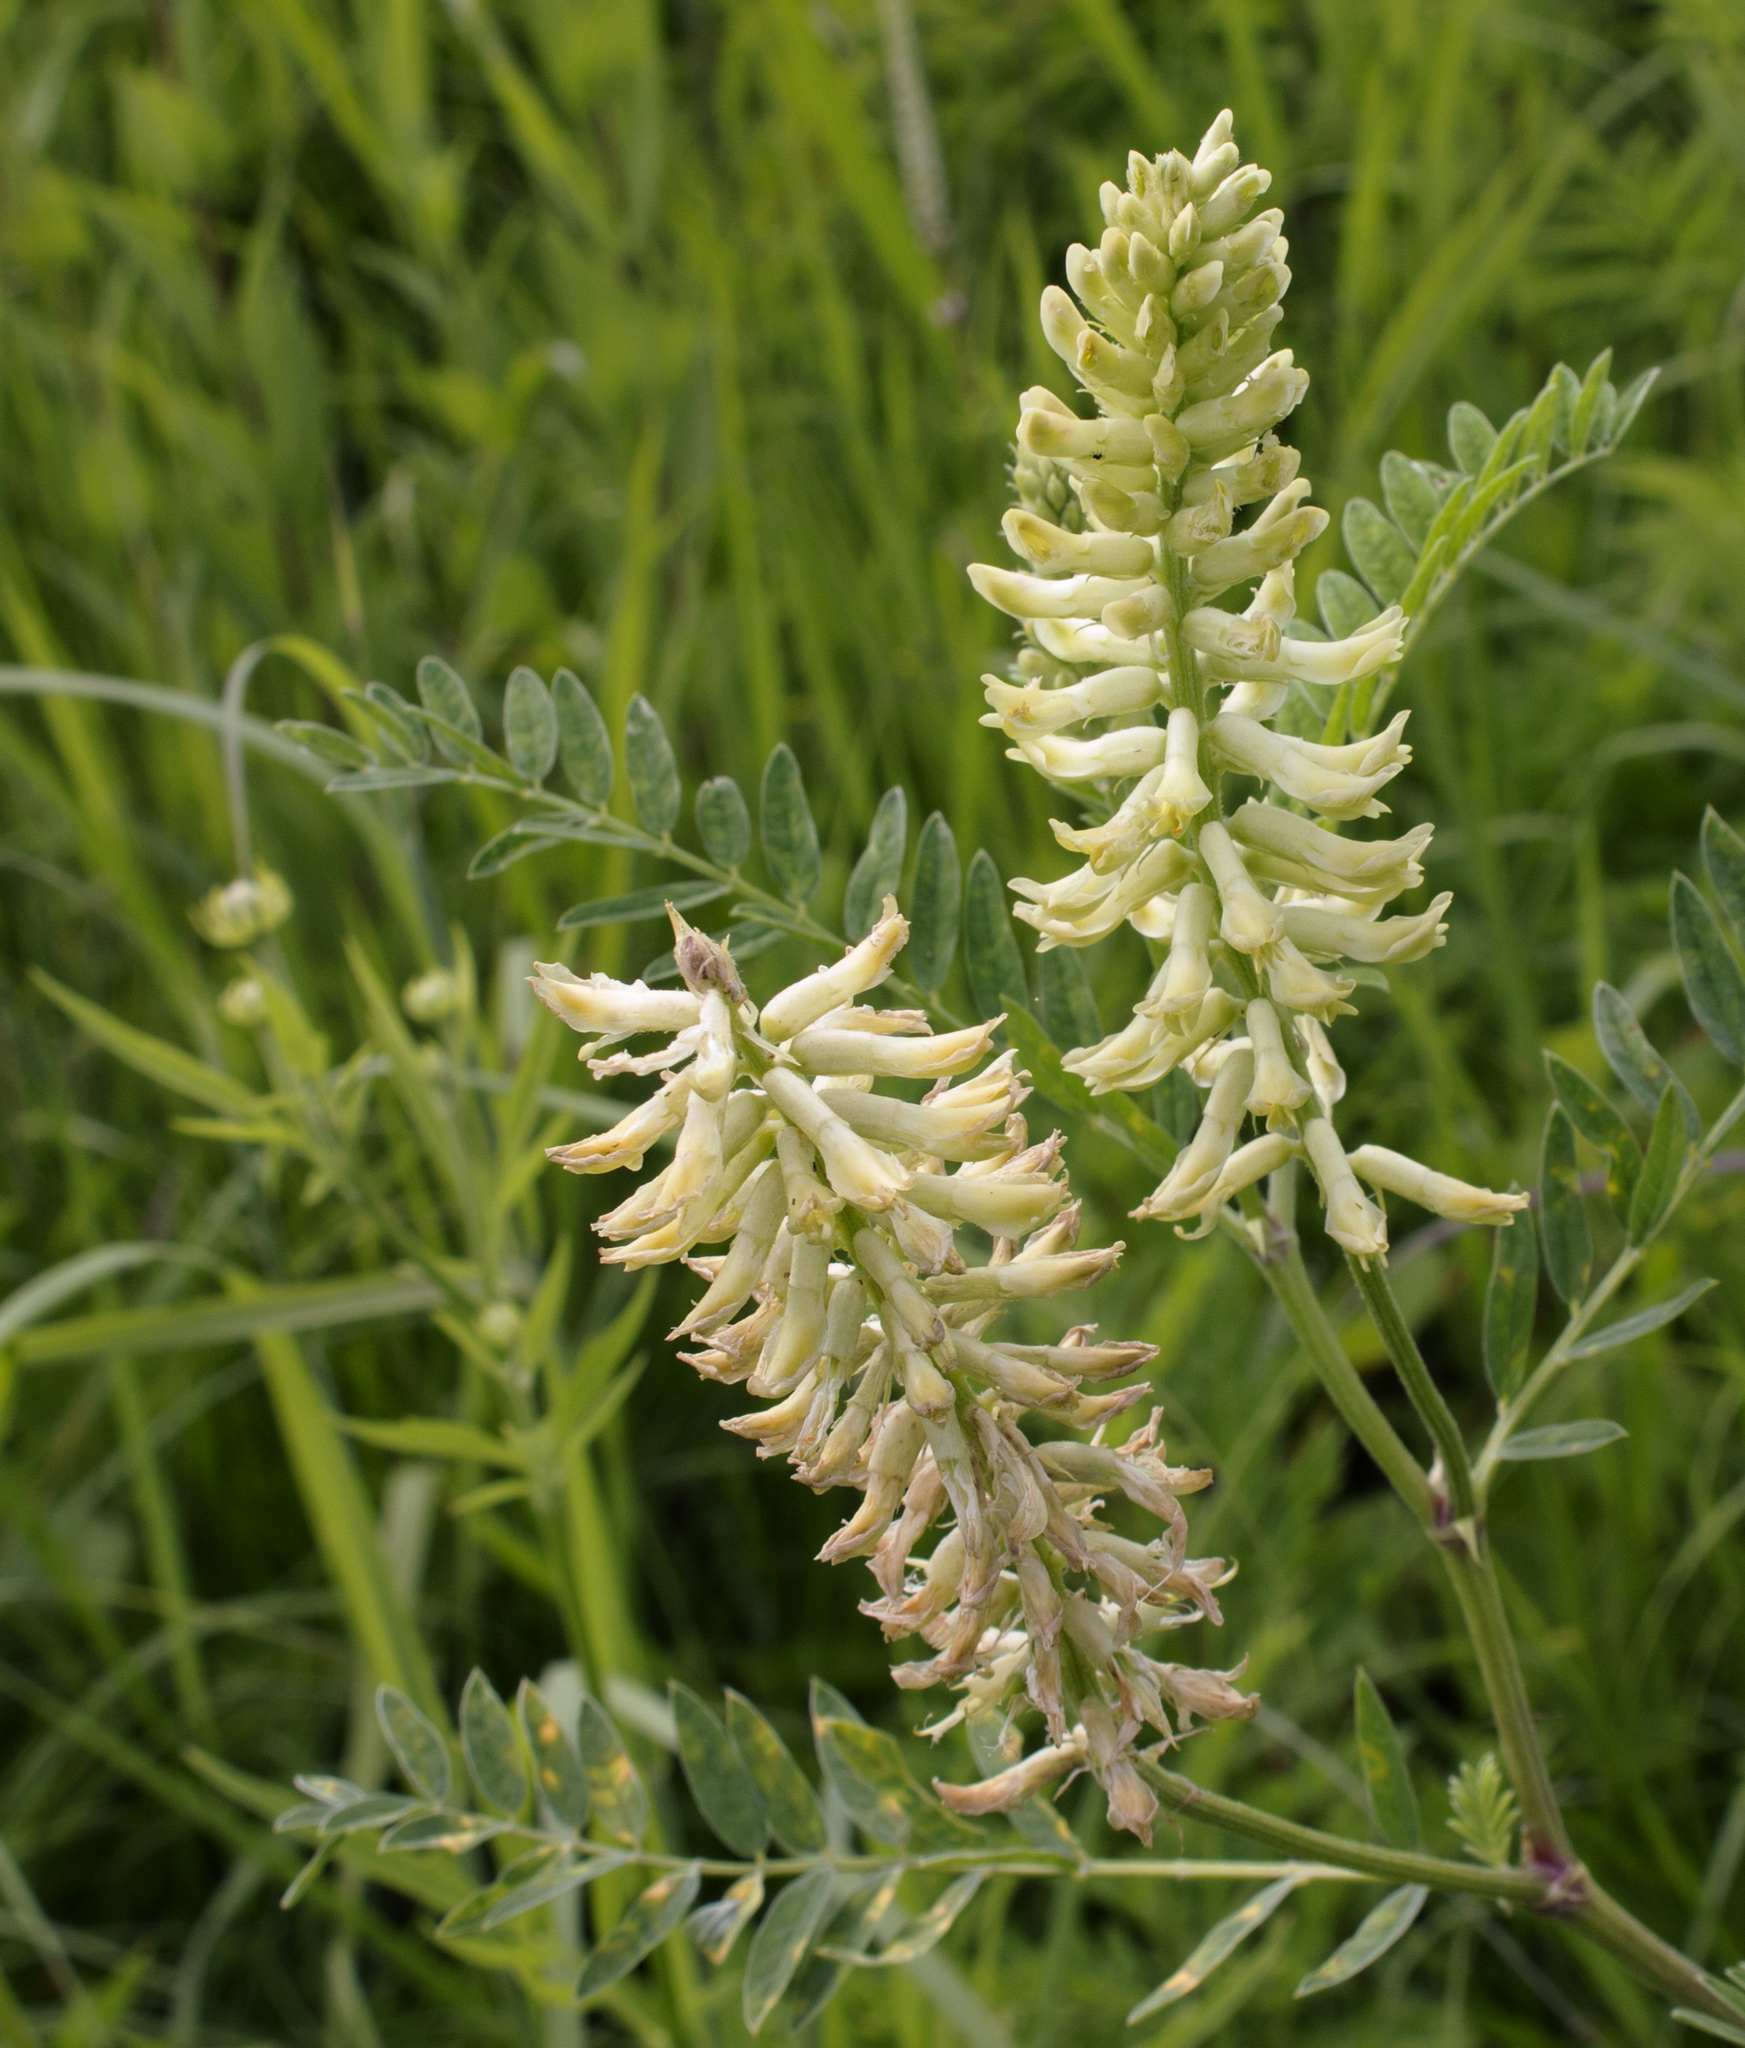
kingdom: Plantae
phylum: Tracheophyta
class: Magnoliopsida
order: Fabales
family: Fabaceae
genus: Astragalus
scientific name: Astragalus canadensis
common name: Canada milk-vetch
